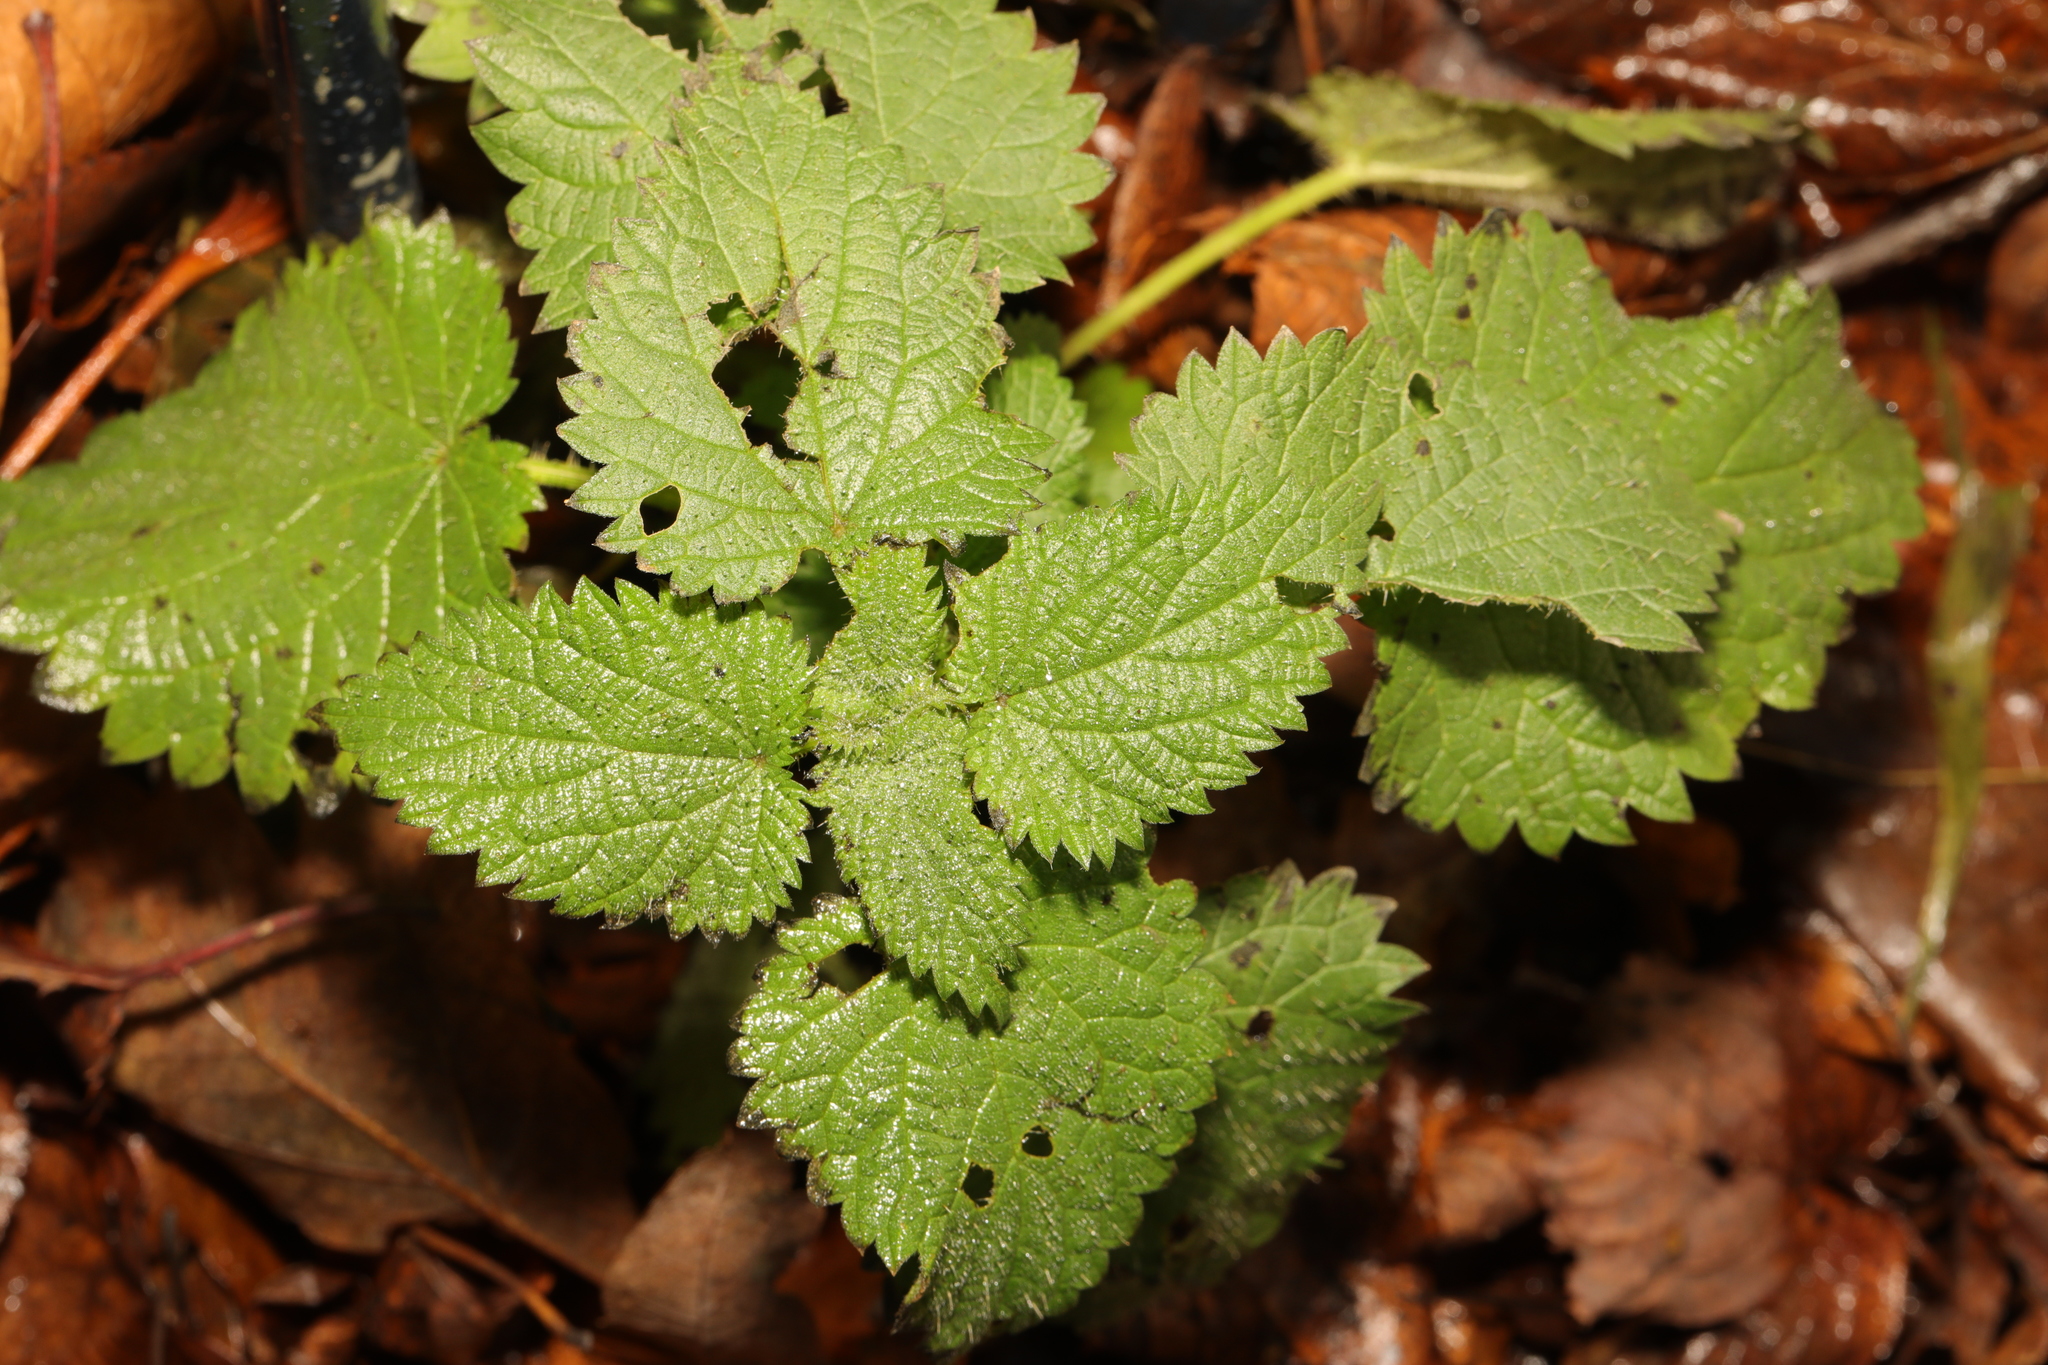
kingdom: Plantae
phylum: Tracheophyta
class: Magnoliopsida
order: Rosales
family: Urticaceae
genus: Urtica
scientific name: Urtica dioica
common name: Common nettle
